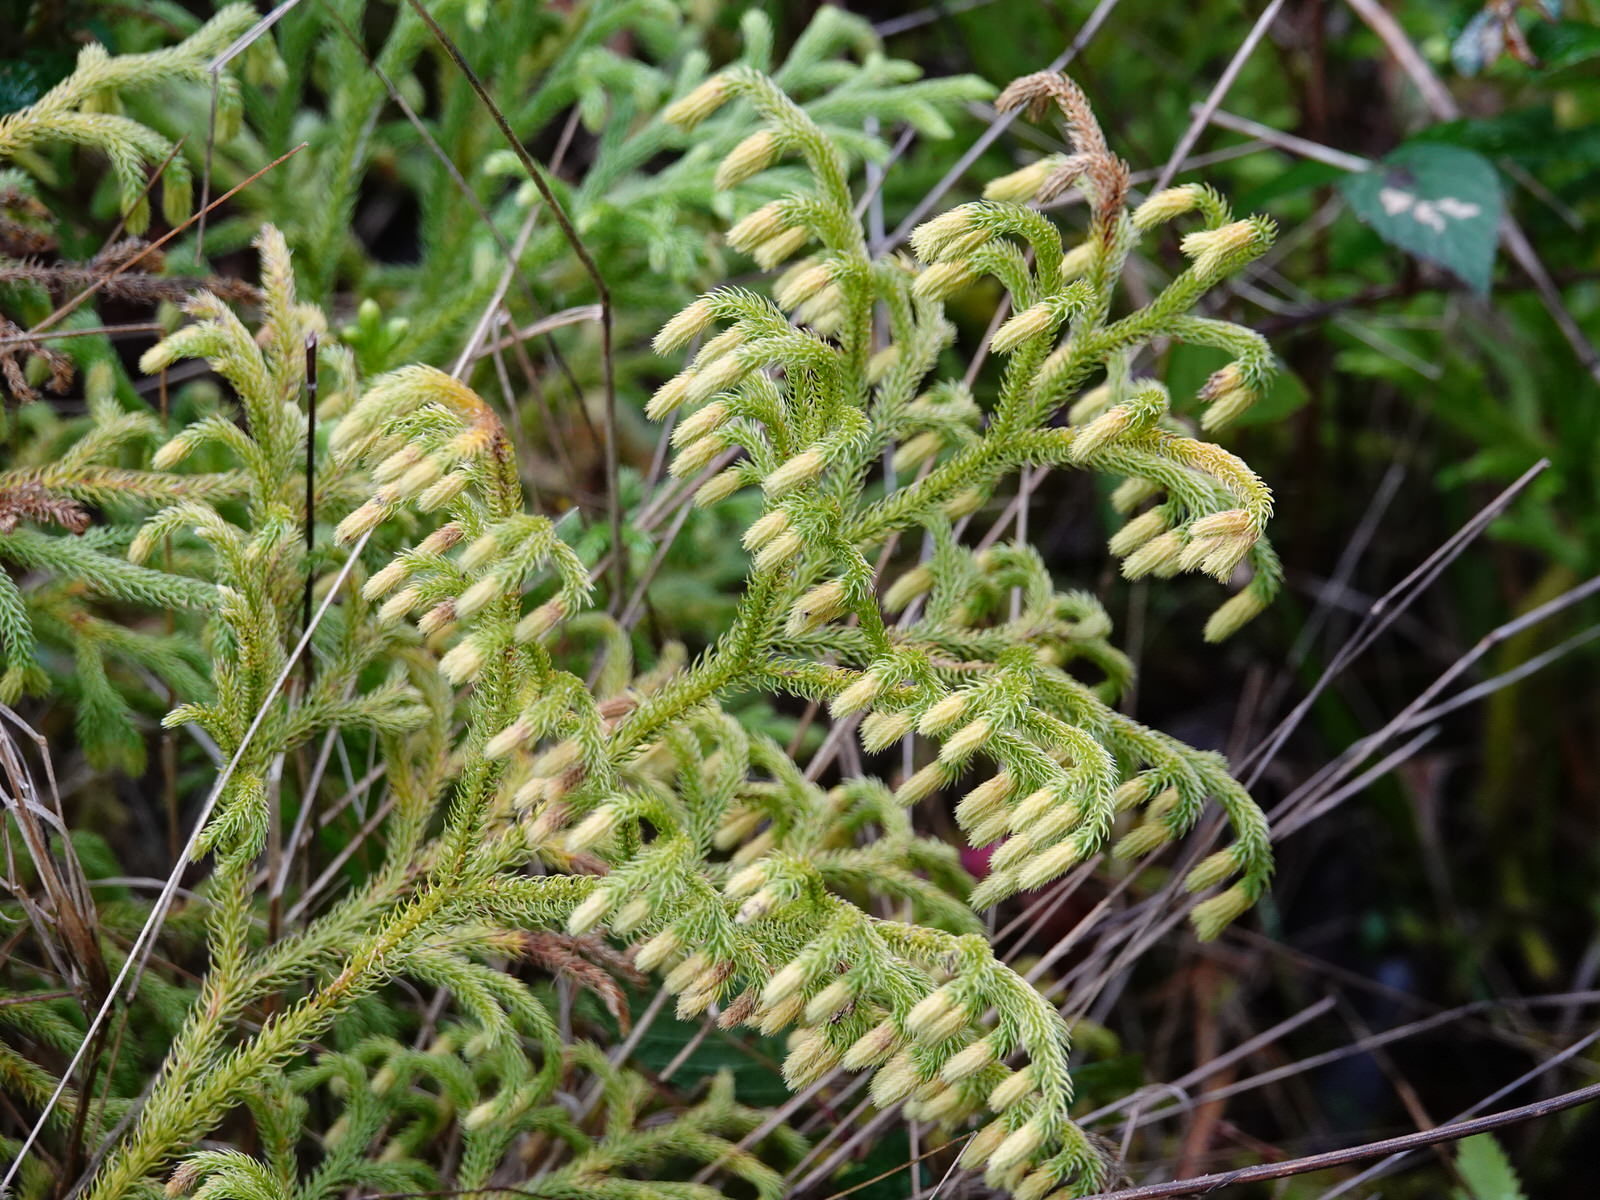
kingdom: Plantae
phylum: Tracheophyta
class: Lycopodiopsida
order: Lycopodiales
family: Lycopodiaceae
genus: Palhinhaea
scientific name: Palhinhaea cernua
